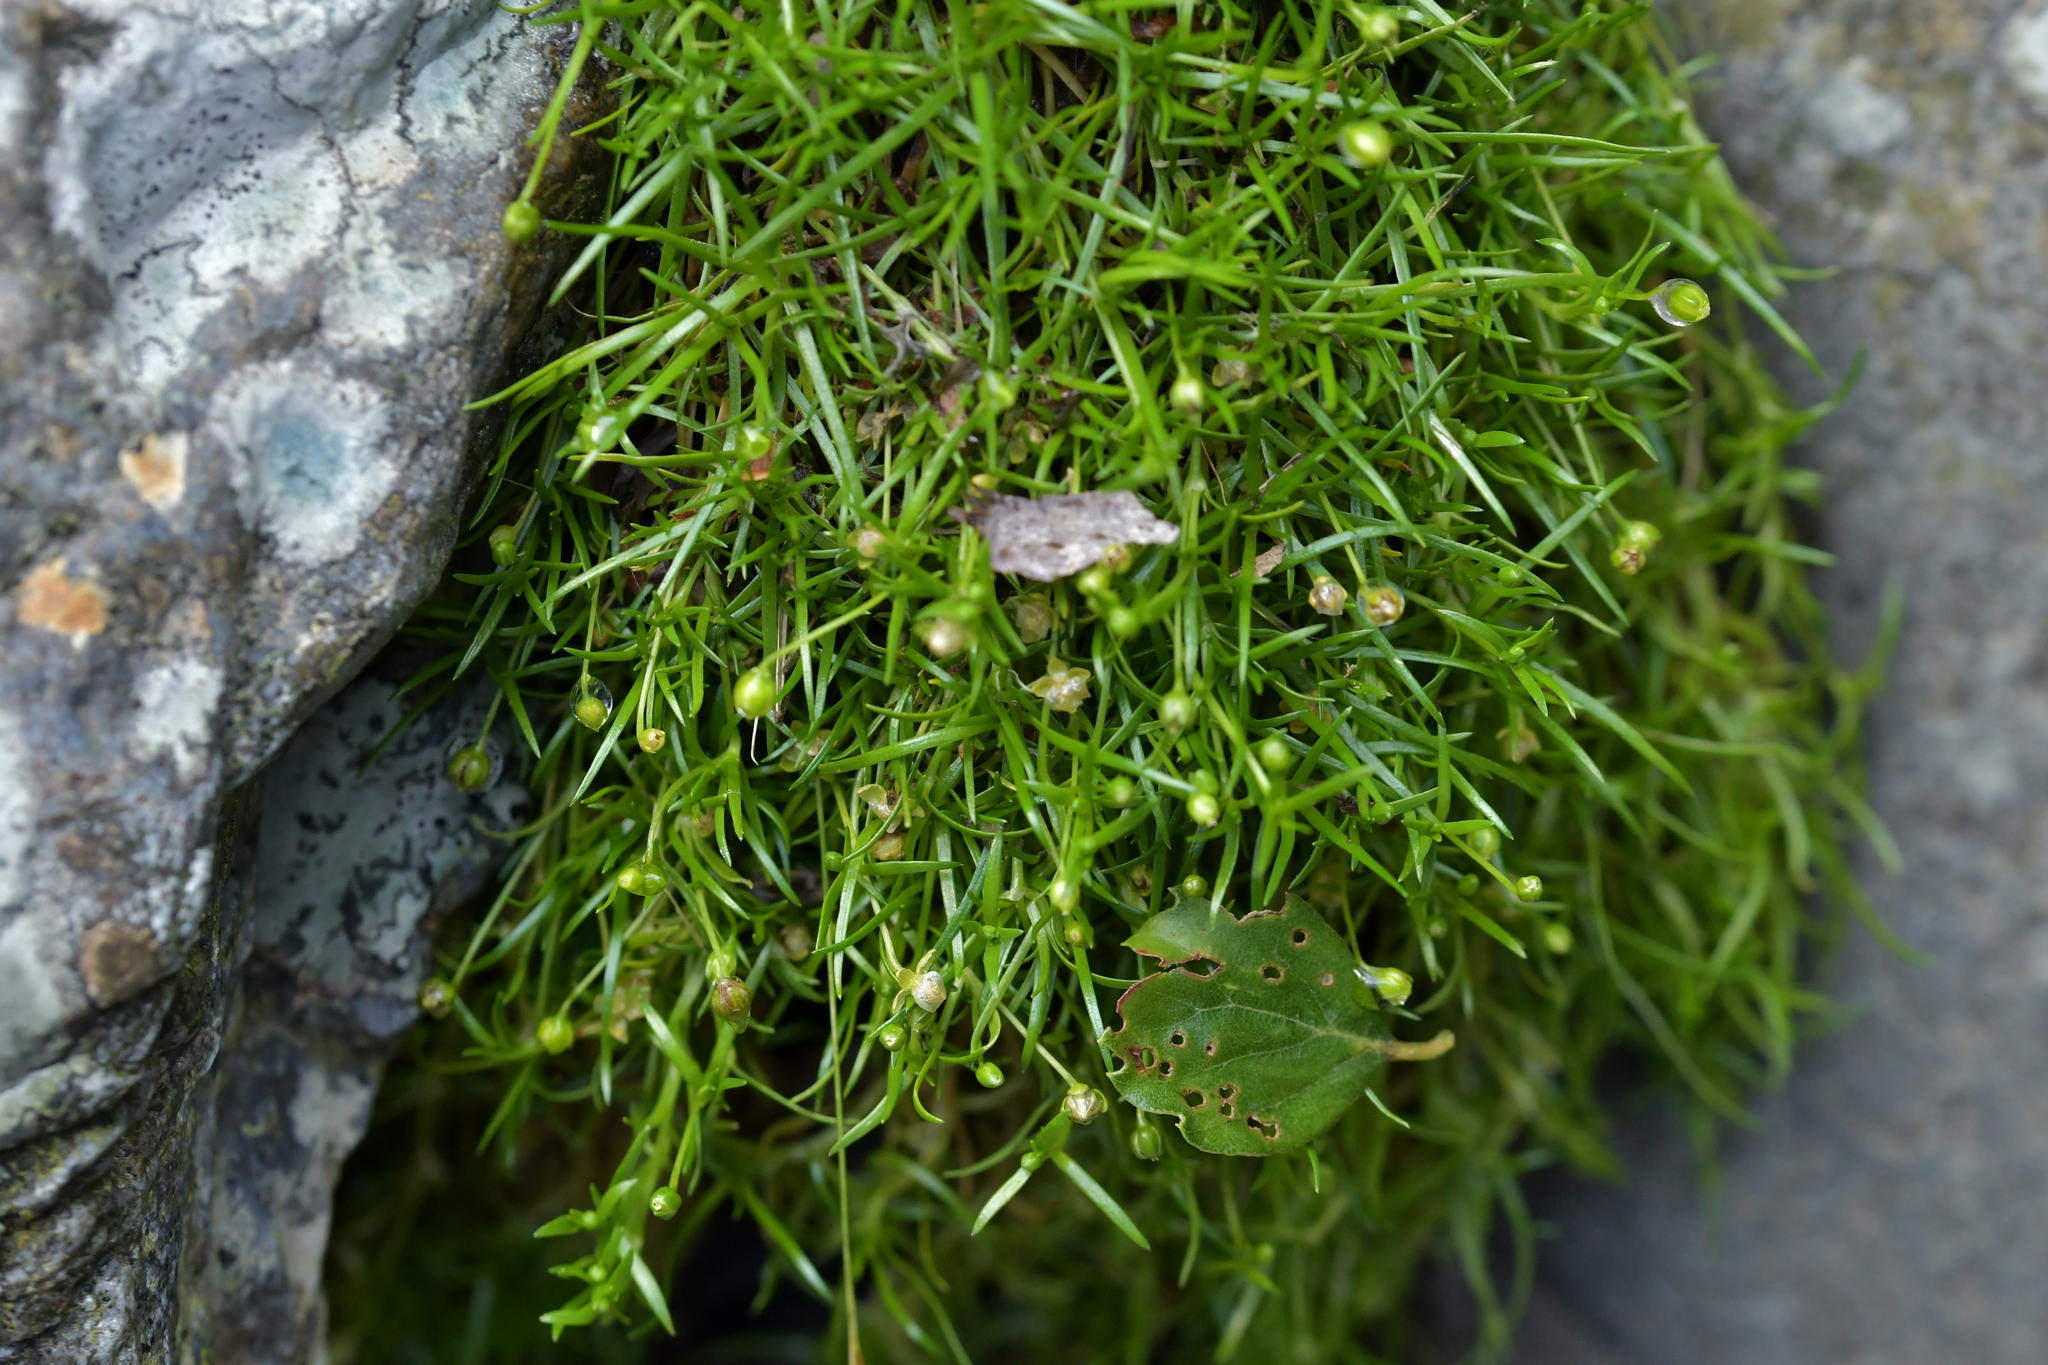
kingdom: Plantae
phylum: Tracheophyta
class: Magnoliopsida
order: Caryophyllales
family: Caryophyllaceae
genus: Sagina
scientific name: Sagina procumbens
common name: Procumbent pearlwort
